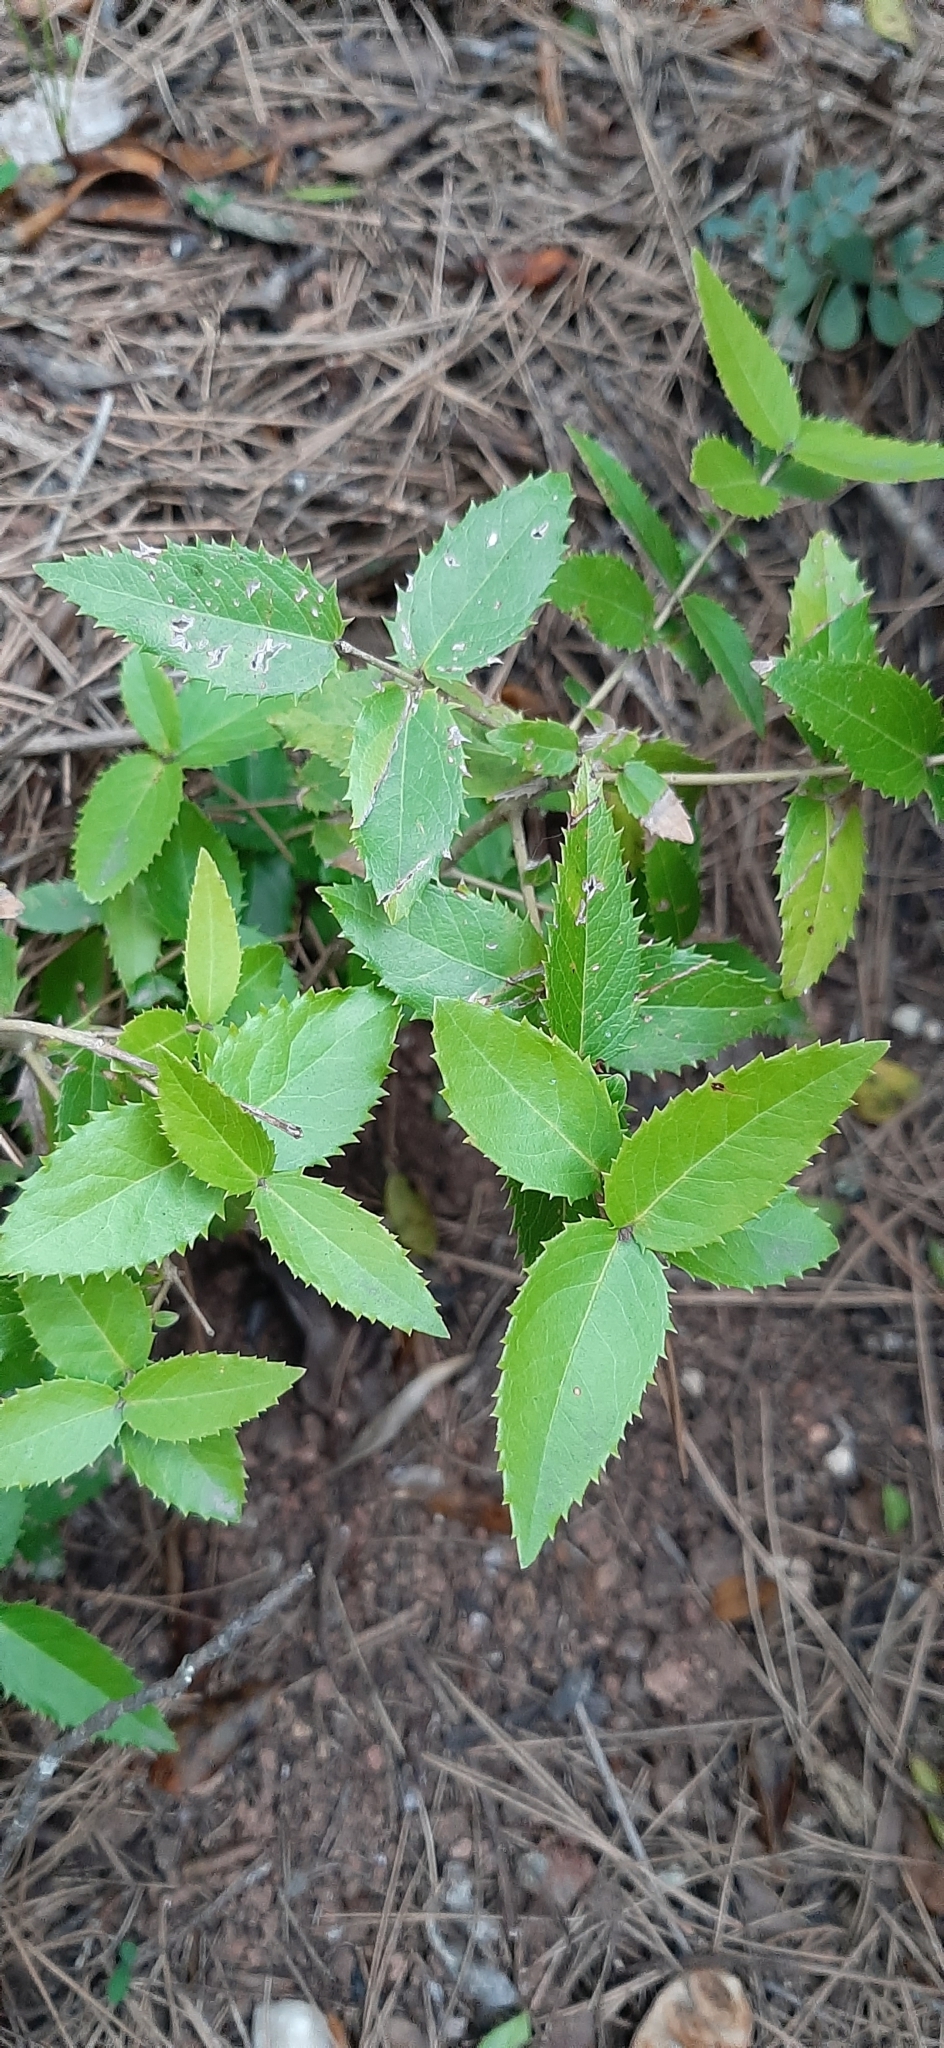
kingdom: Plantae
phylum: Tracheophyta
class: Magnoliopsida
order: Lamiales
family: Oleaceae
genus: Phillyrea
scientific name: Phillyrea latifolia
